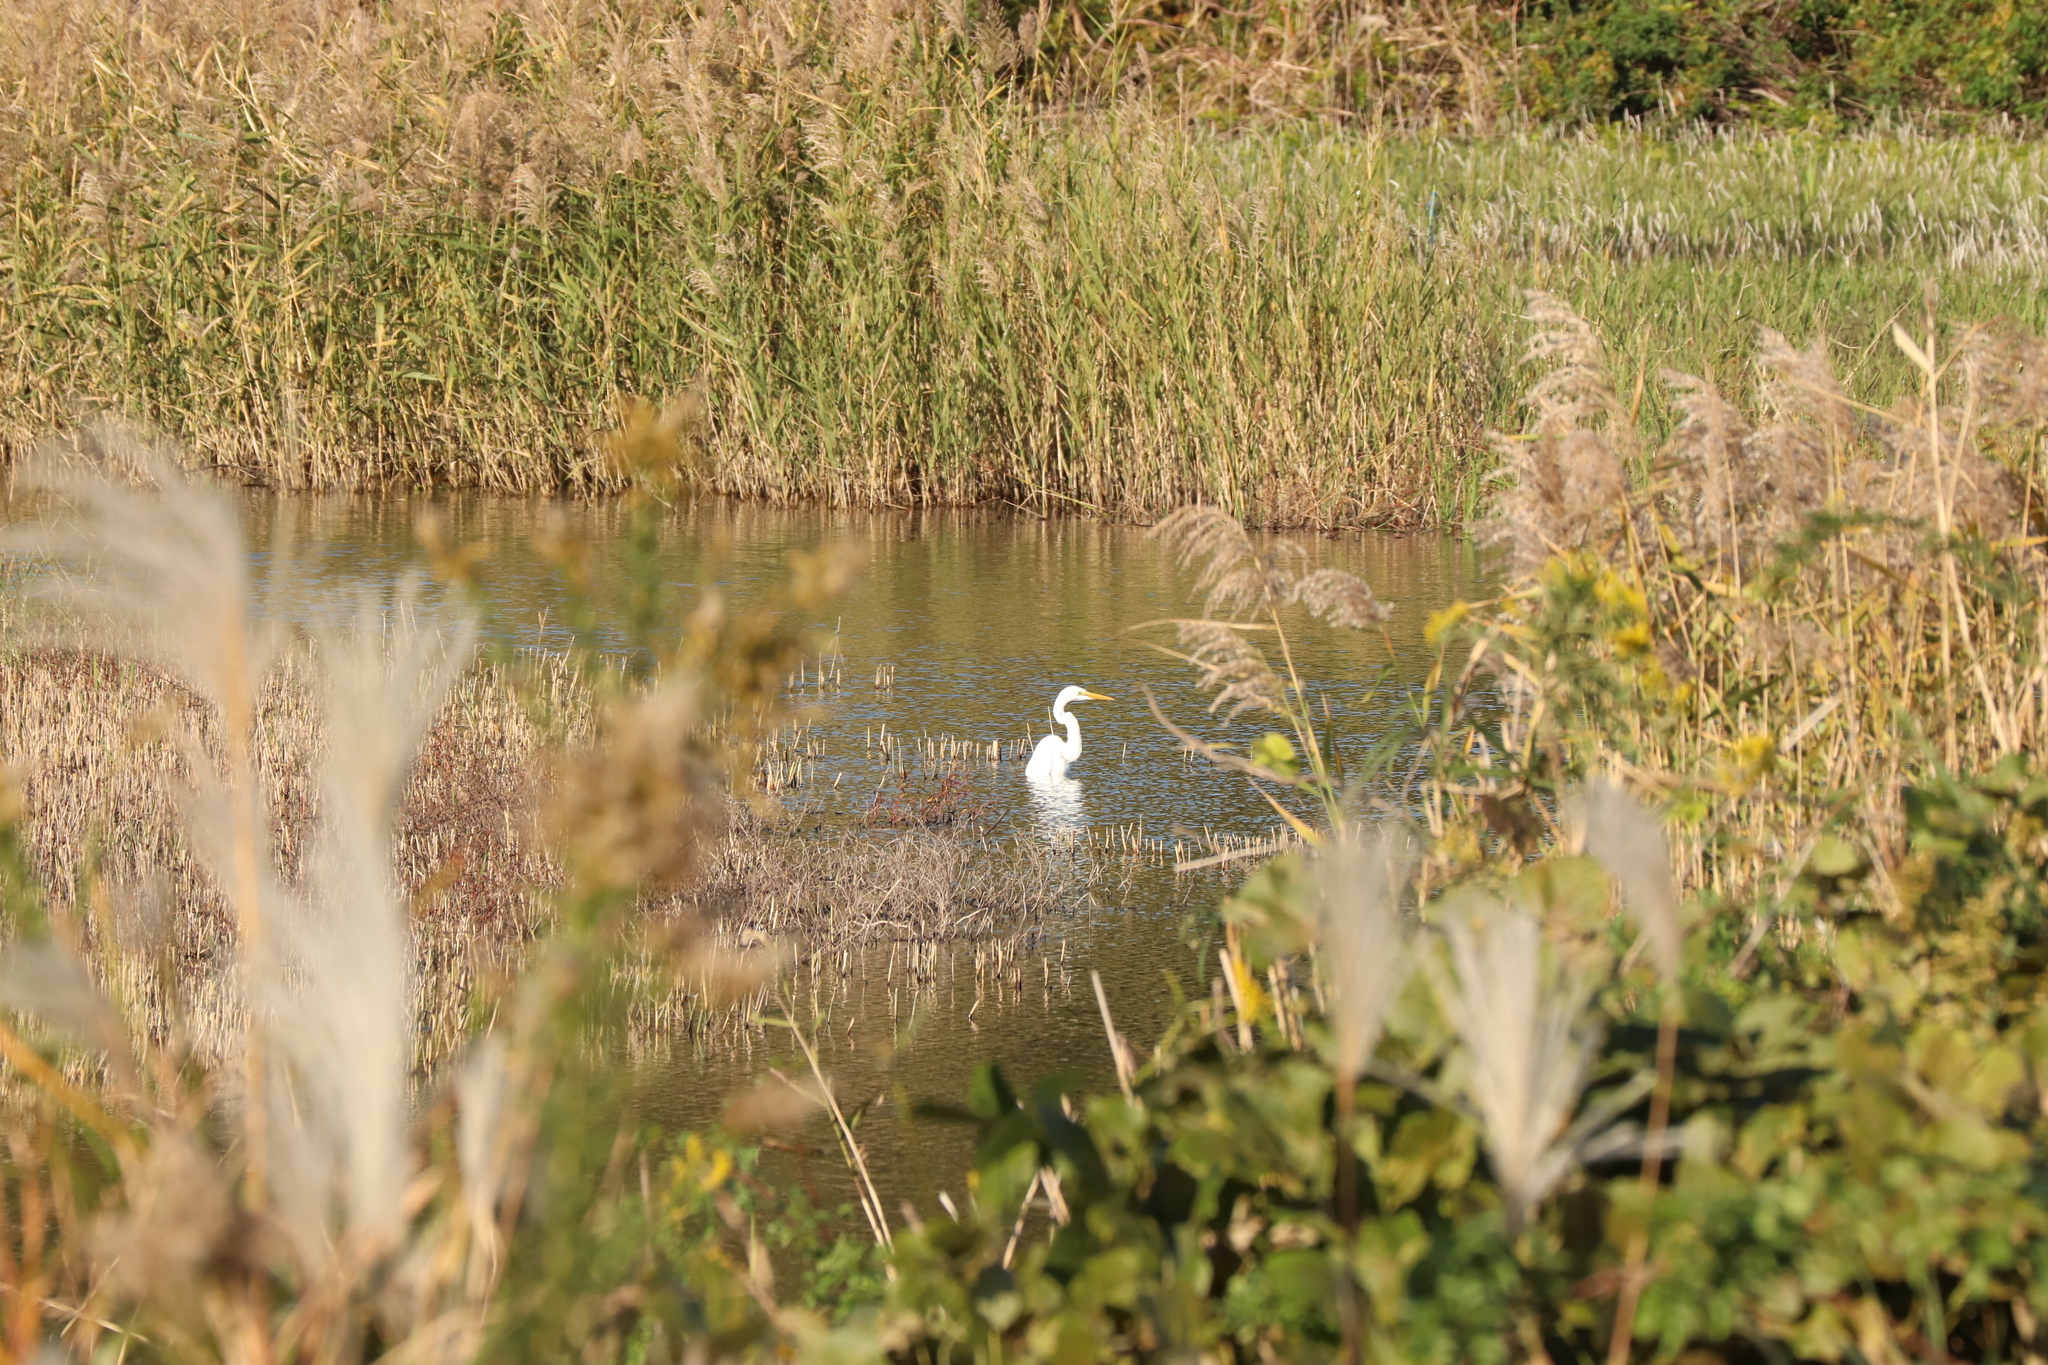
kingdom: Animalia
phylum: Chordata
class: Aves
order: Pelecaniformes
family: Ardeidae
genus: Ardea
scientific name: Ardea alba
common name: Great egret
